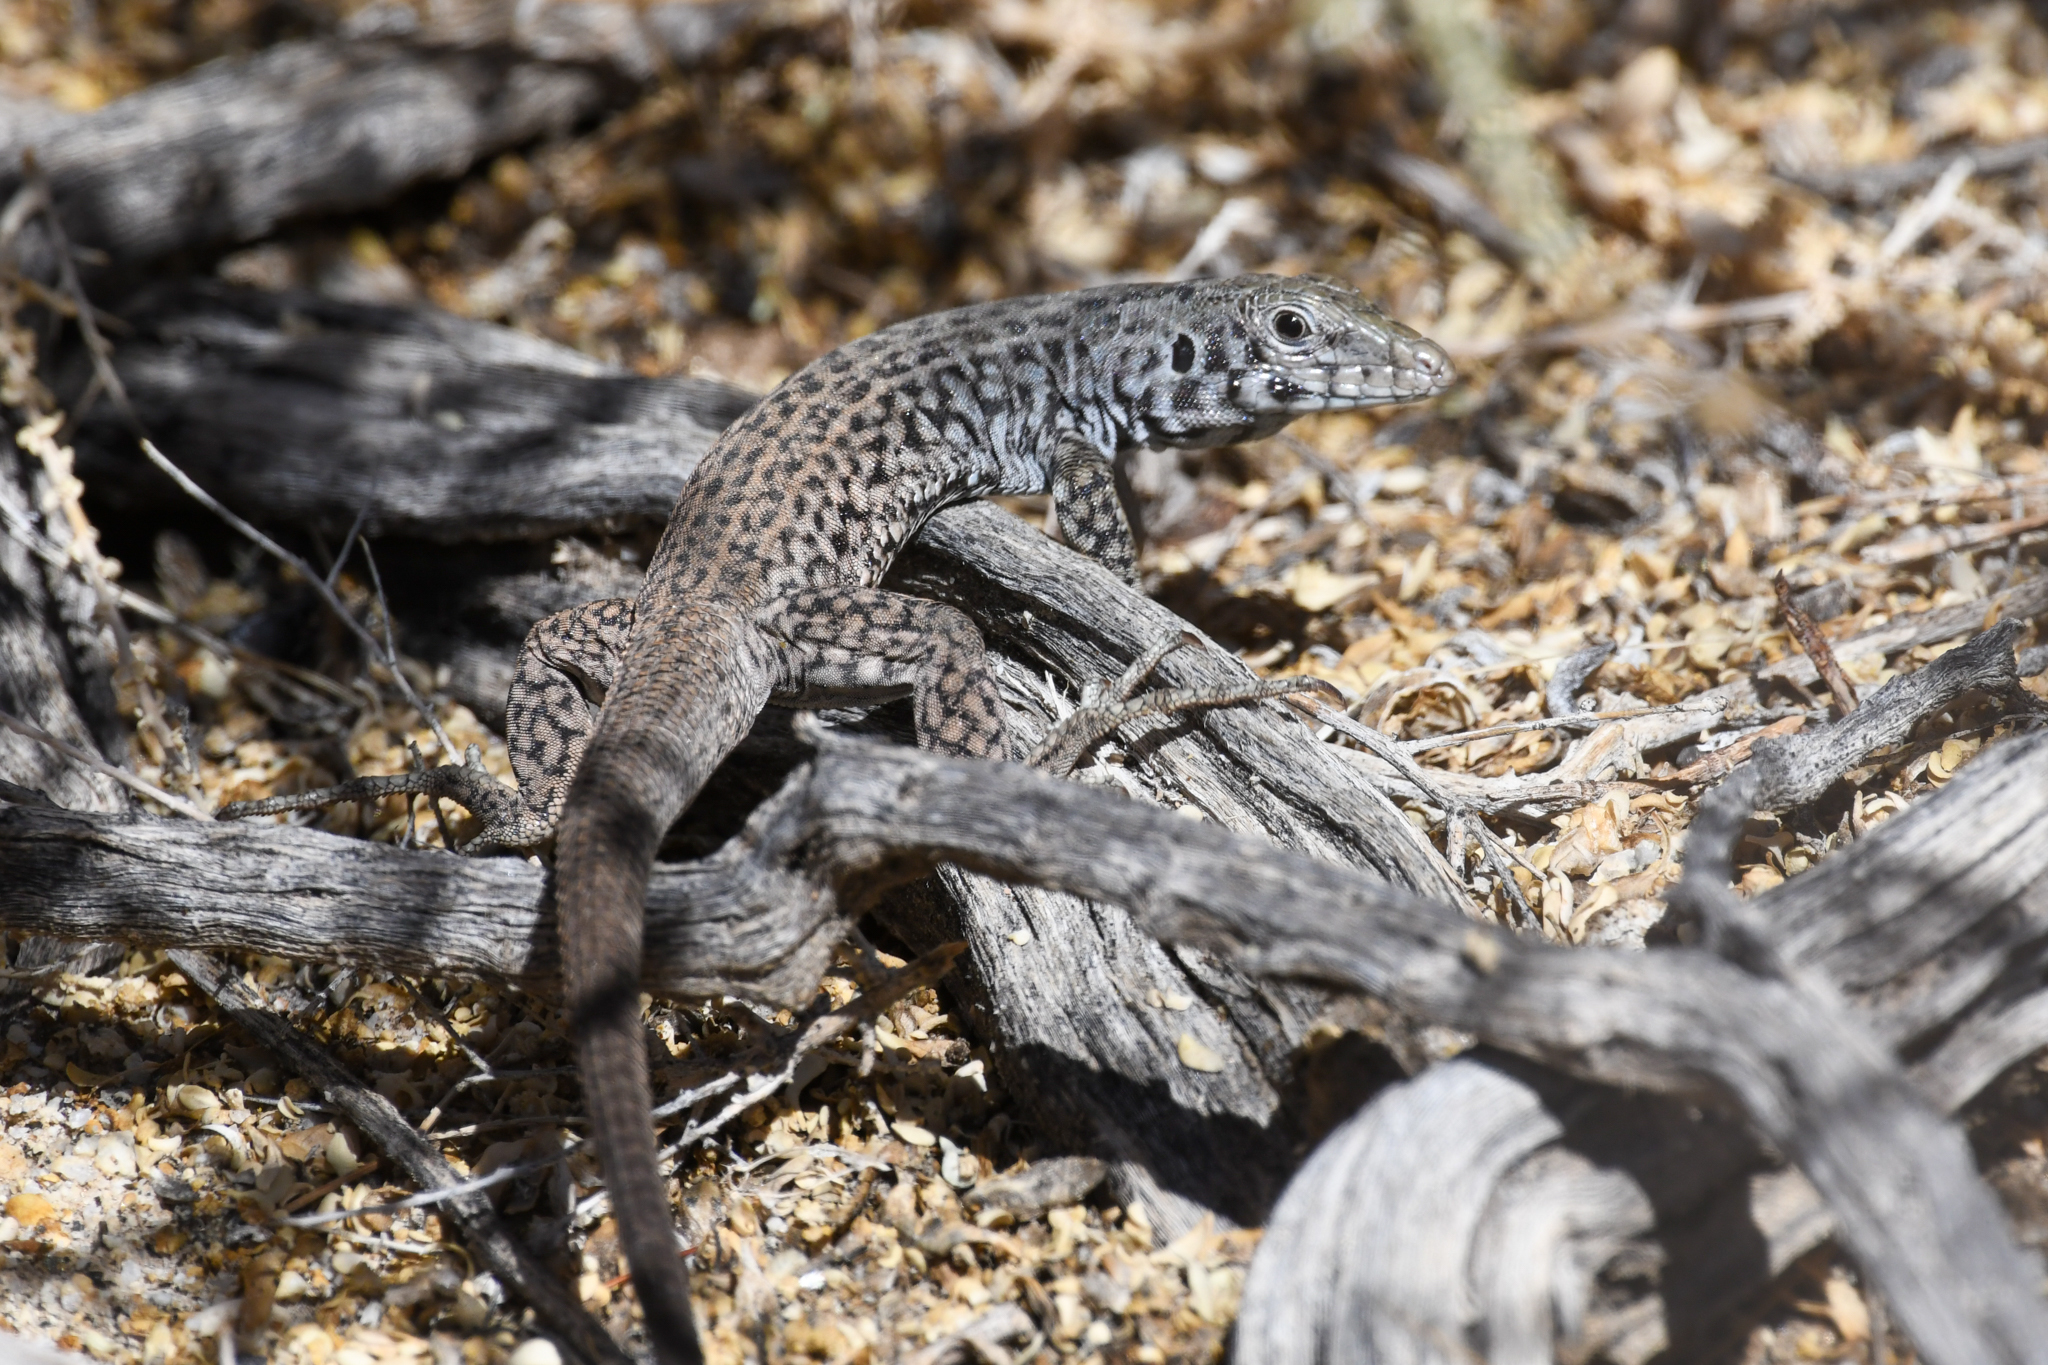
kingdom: Animalia
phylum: Chordata
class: Squamata
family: Teiidae
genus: Aspidoscelis
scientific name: Aspidoscelis tigris
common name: Tiger whiptail
